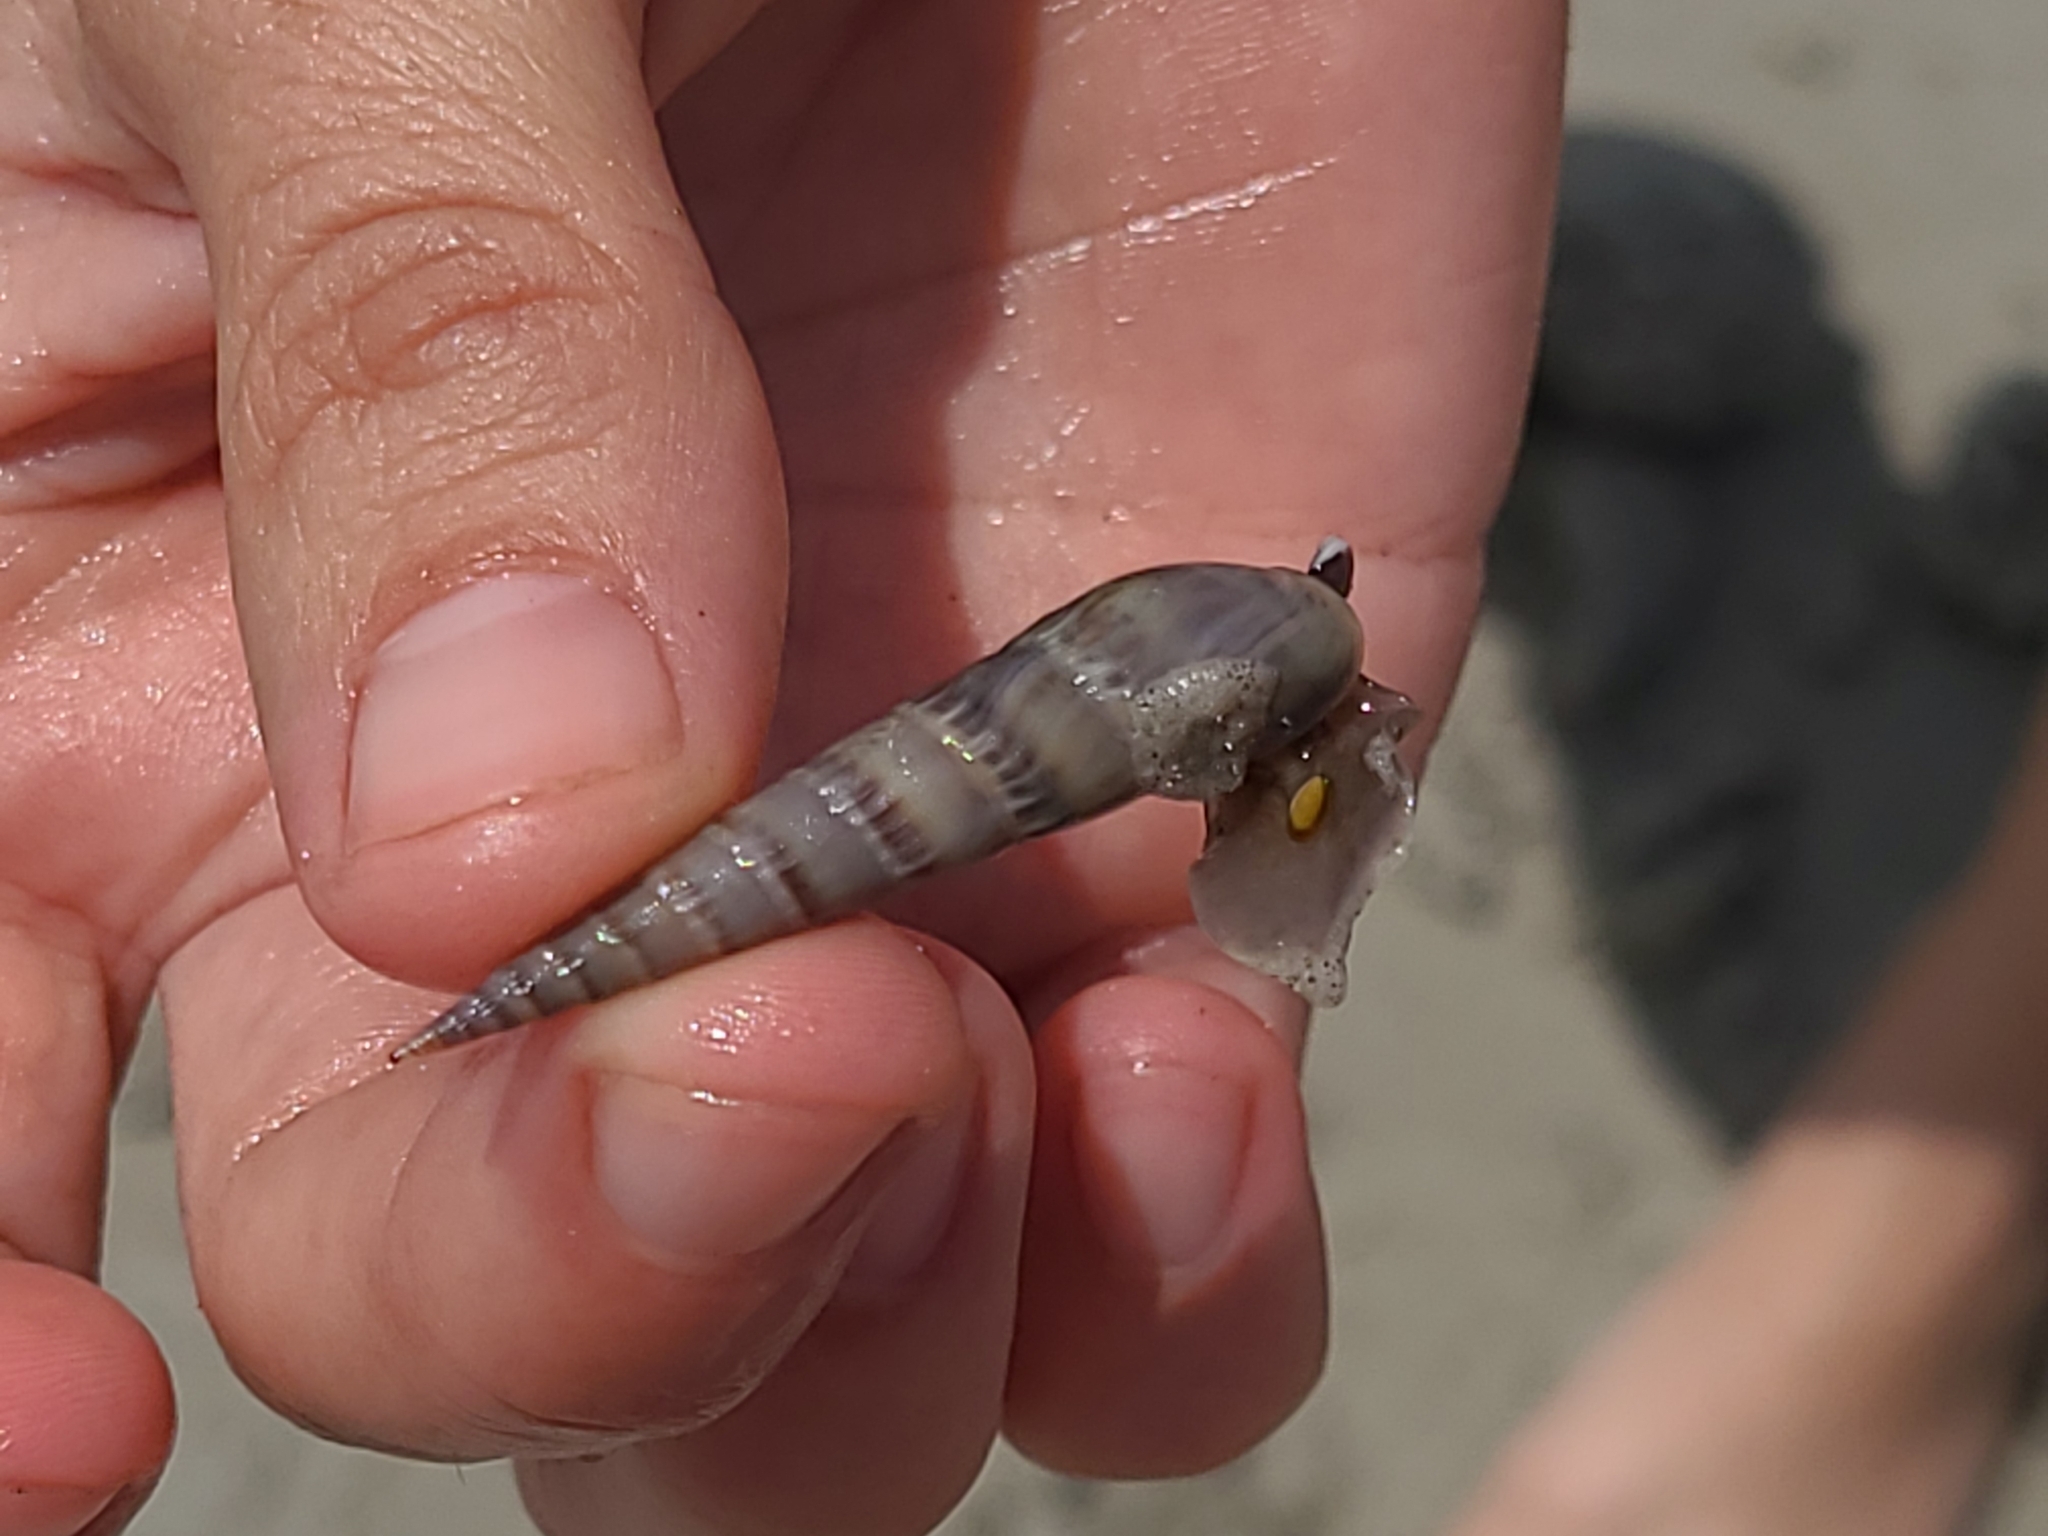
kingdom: Animalia
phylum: Mollusca
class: Gastropoda
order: Neogastropoda
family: Terebridae
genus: Hastula
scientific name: Hastula cinerea
